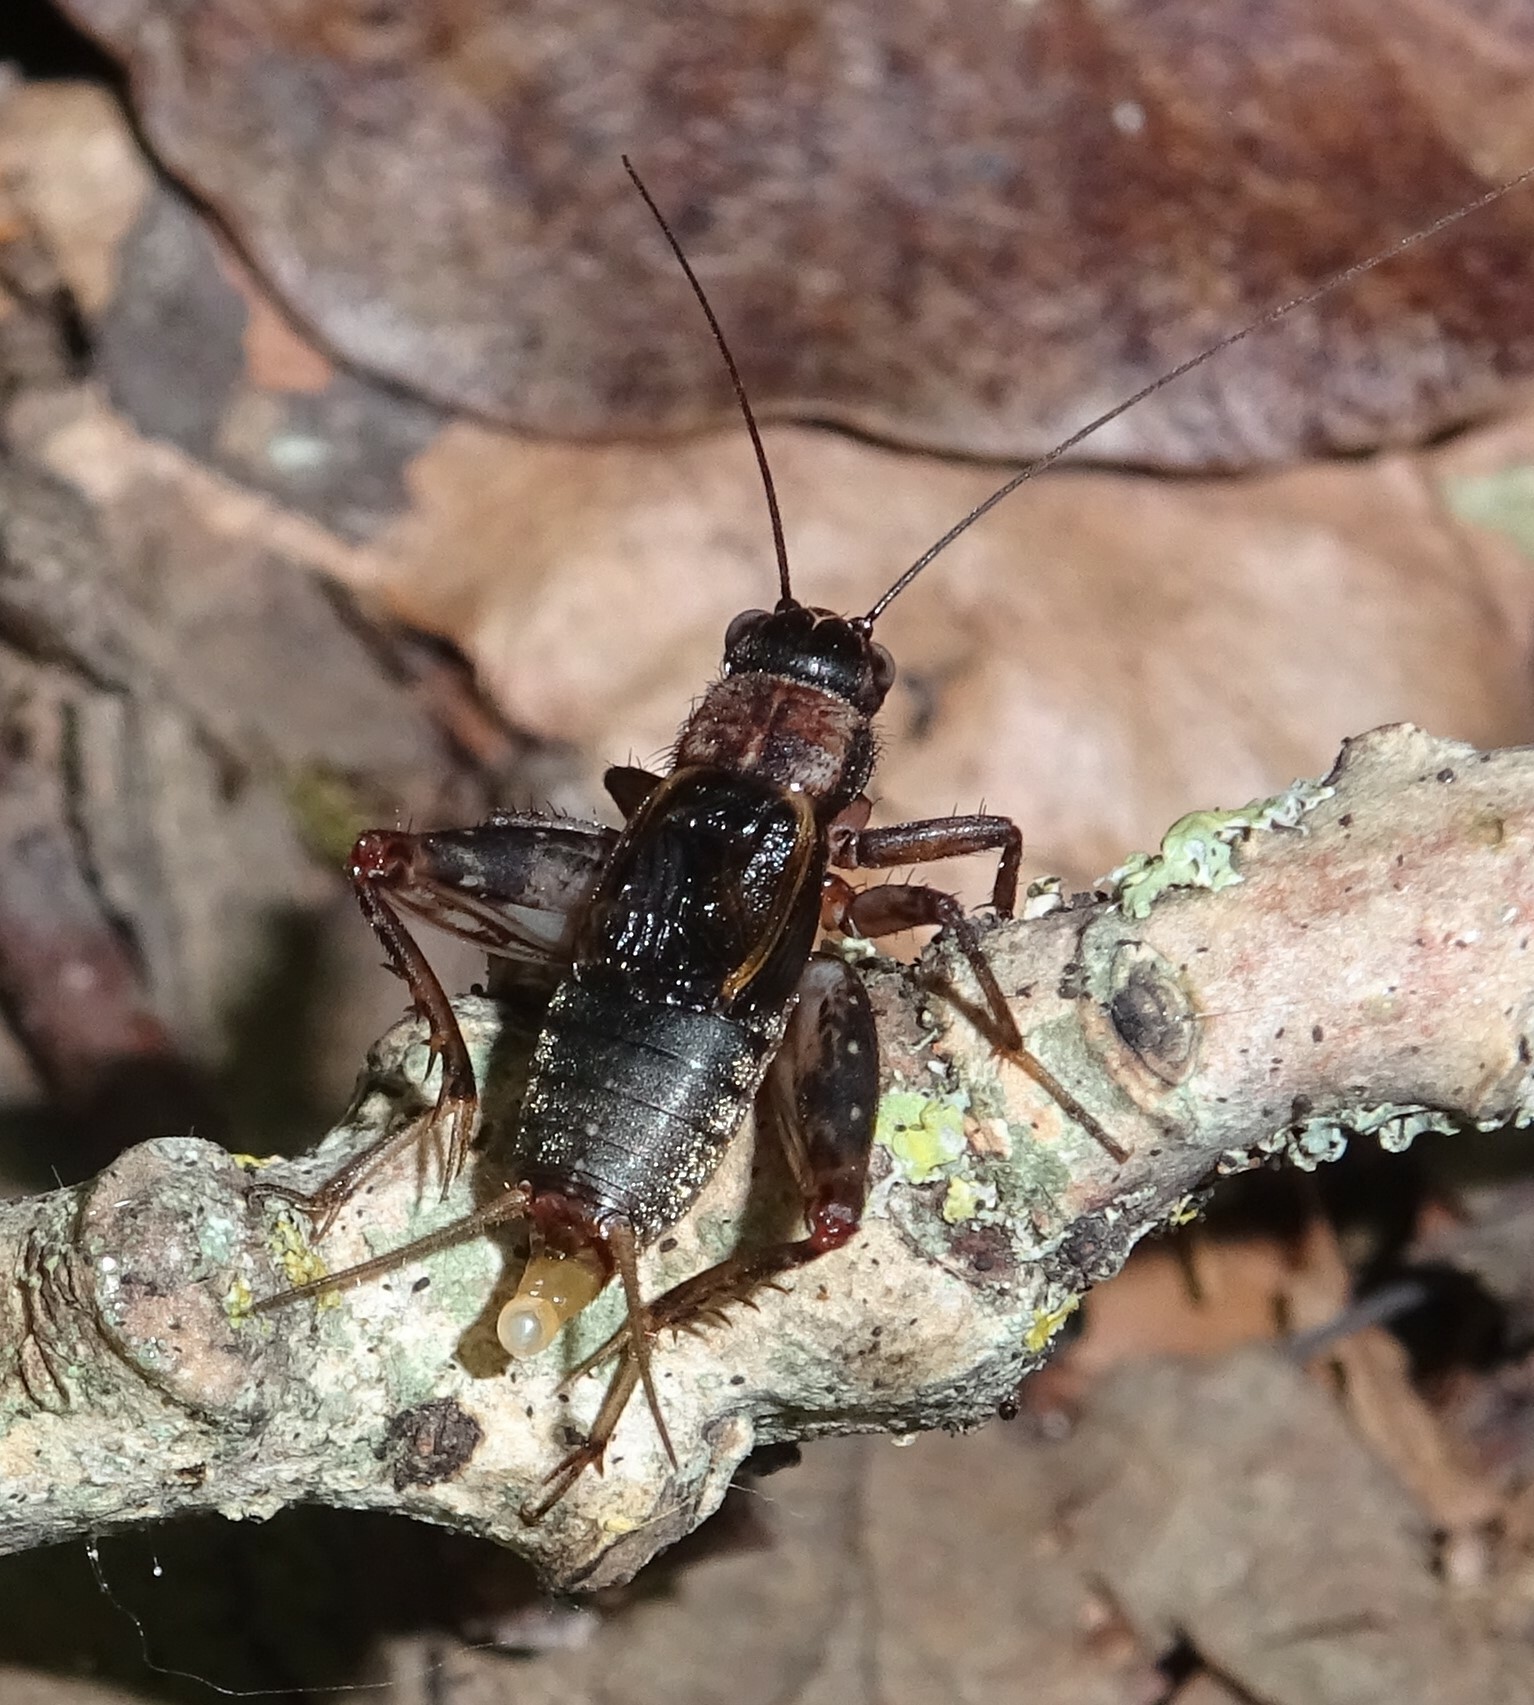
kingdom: Animalia
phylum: Arthropoda
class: Insecta
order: Orthoptera
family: Trigonidiidae
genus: Nemobius
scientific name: Nemobius sylvestris
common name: Wood-cricket
